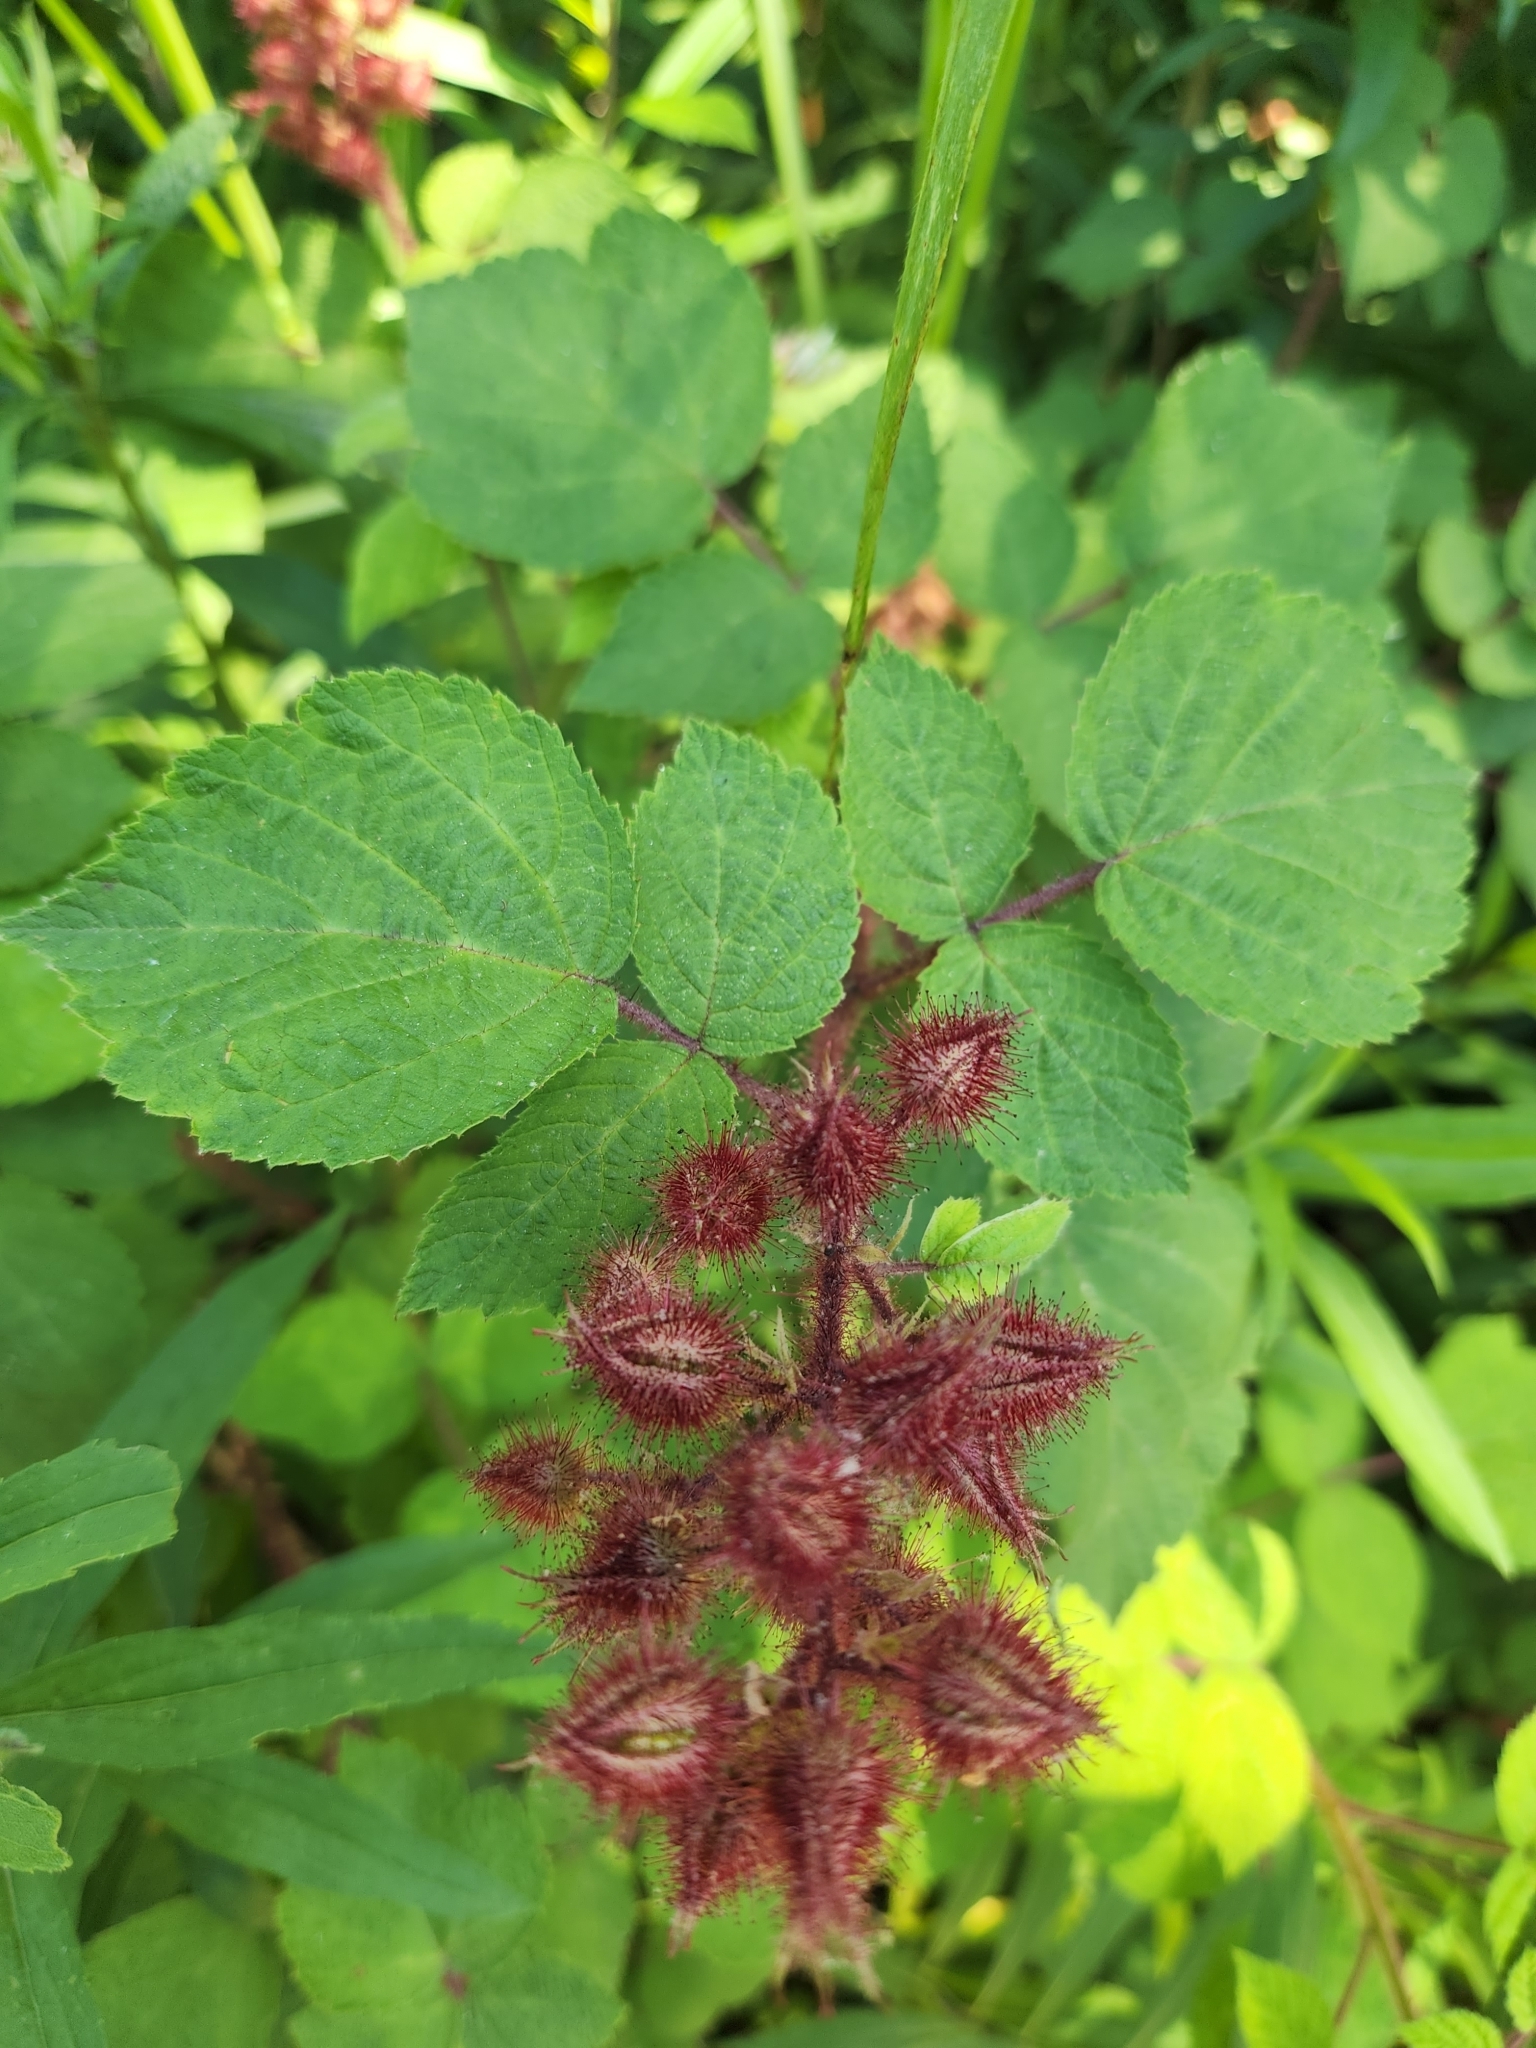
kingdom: Plantae
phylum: Tracheophyta
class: Magnoliopsida
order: Rosales
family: Rosaceae
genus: Rubus
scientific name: Rubus phoenicolasius
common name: Japanese wineberry
